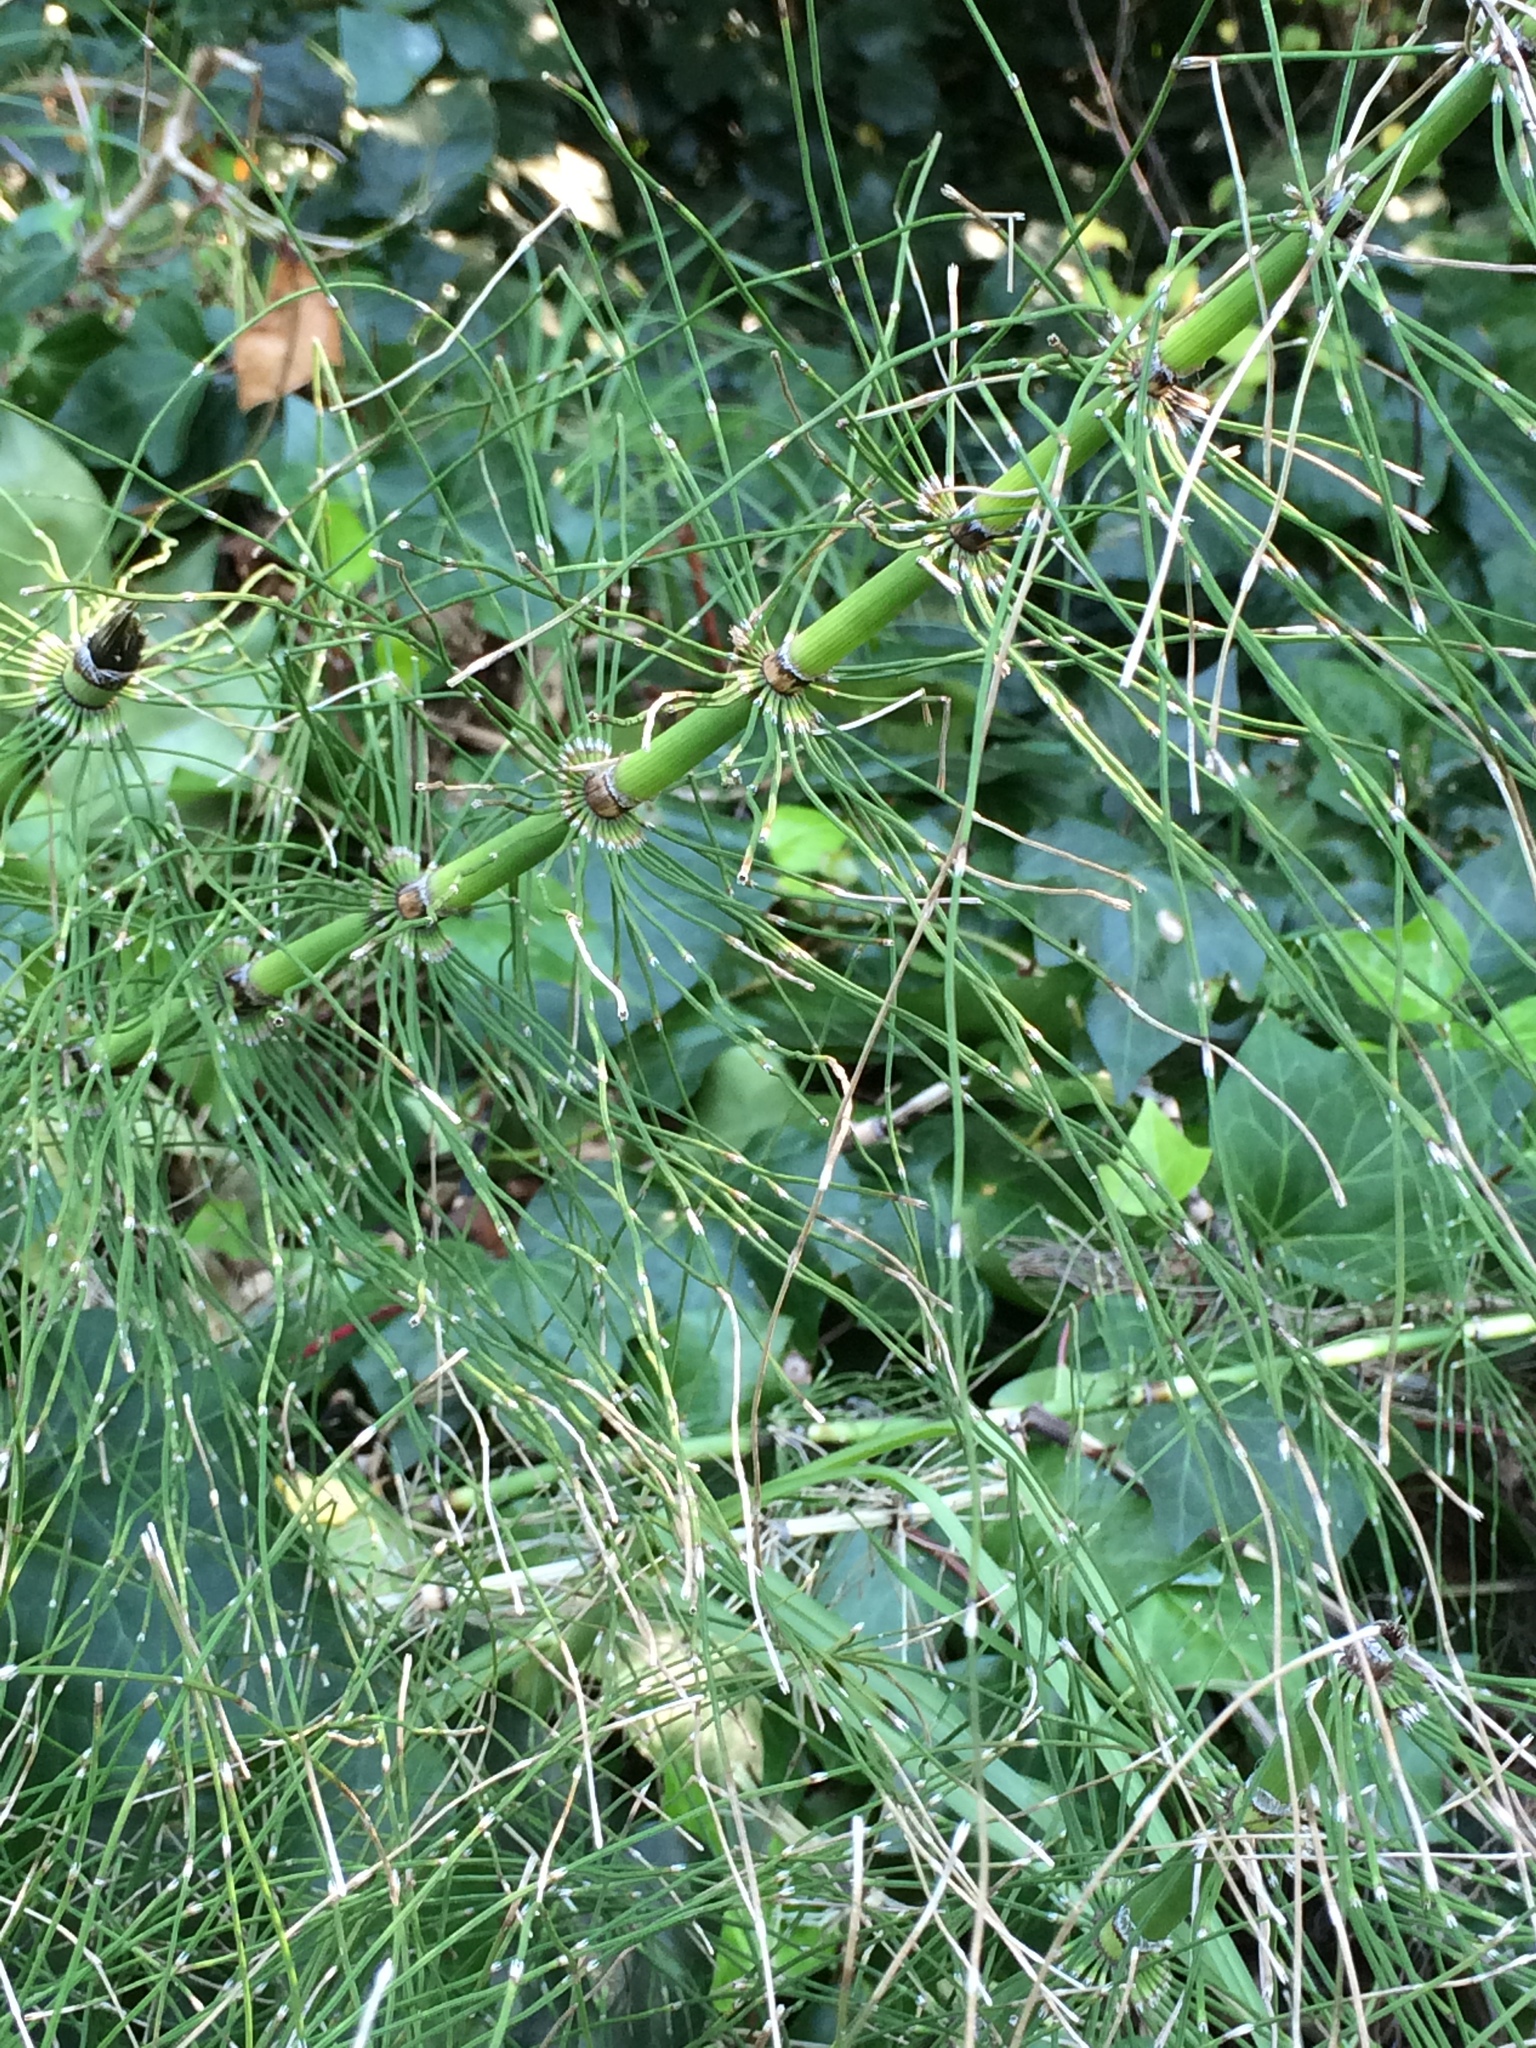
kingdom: Plantae
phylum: Tracheophyta
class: Polypodiopsida
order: Equisetales
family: Equisetaceae
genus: Equisetum
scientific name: Equisetum telmateia
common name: Great horsetail
